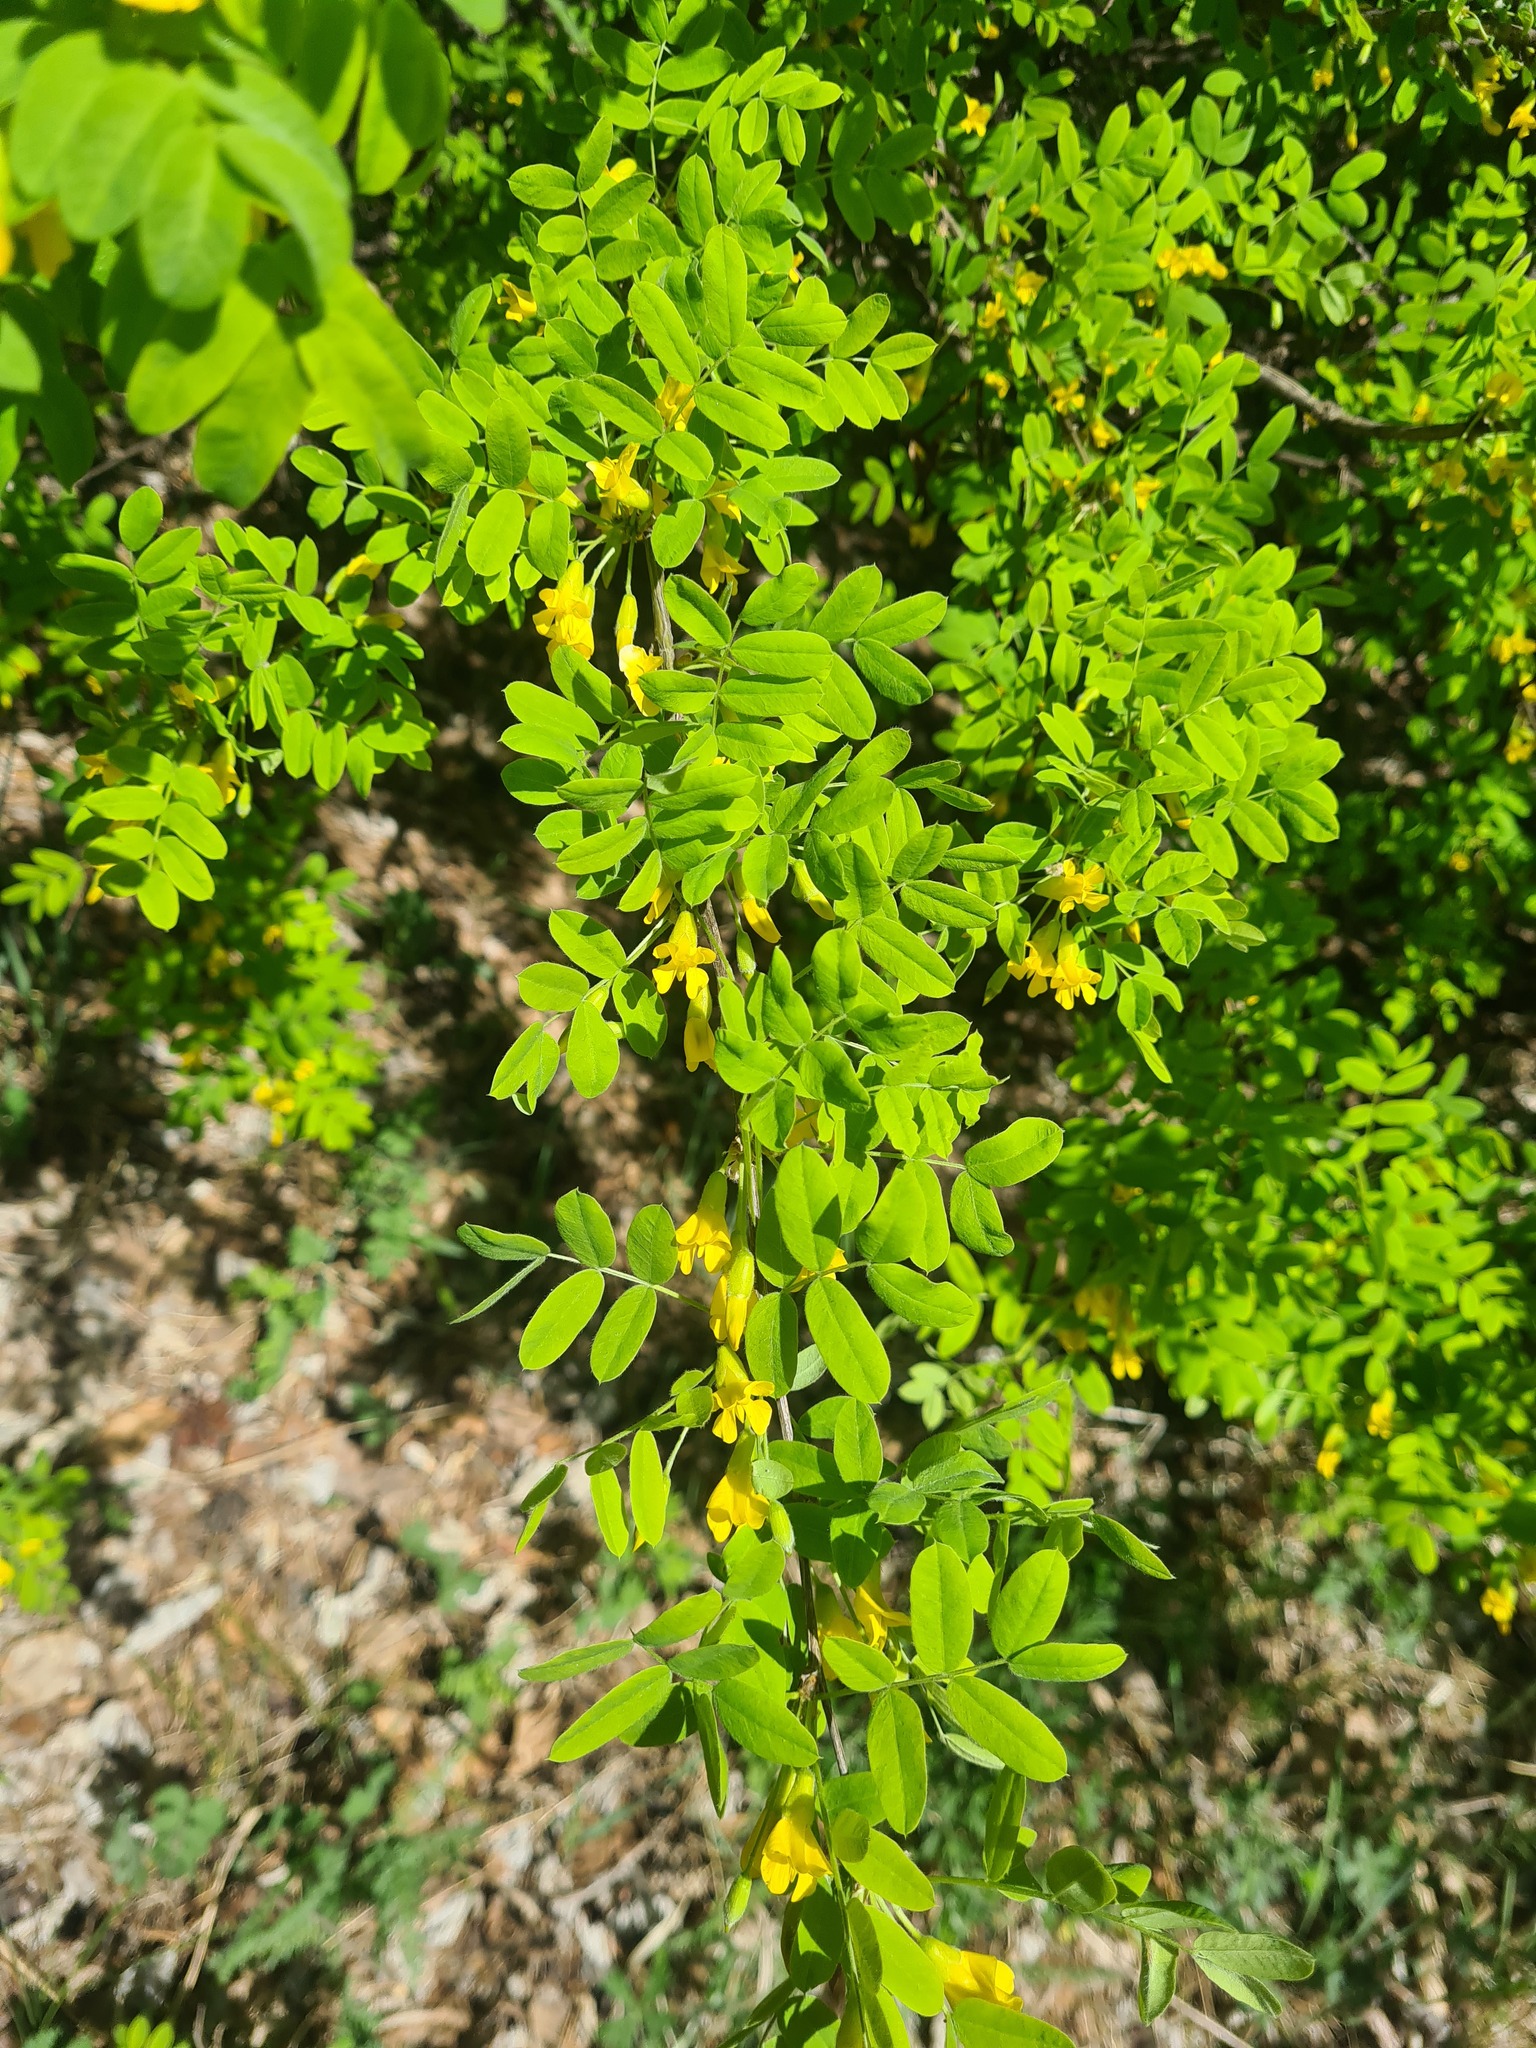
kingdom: Plantae
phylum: Tracheophyta
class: Magnoliopsida
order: Fabales
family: Fabaceae
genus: Caragana
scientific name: Caragana arborescens
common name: Siberian peashrub
